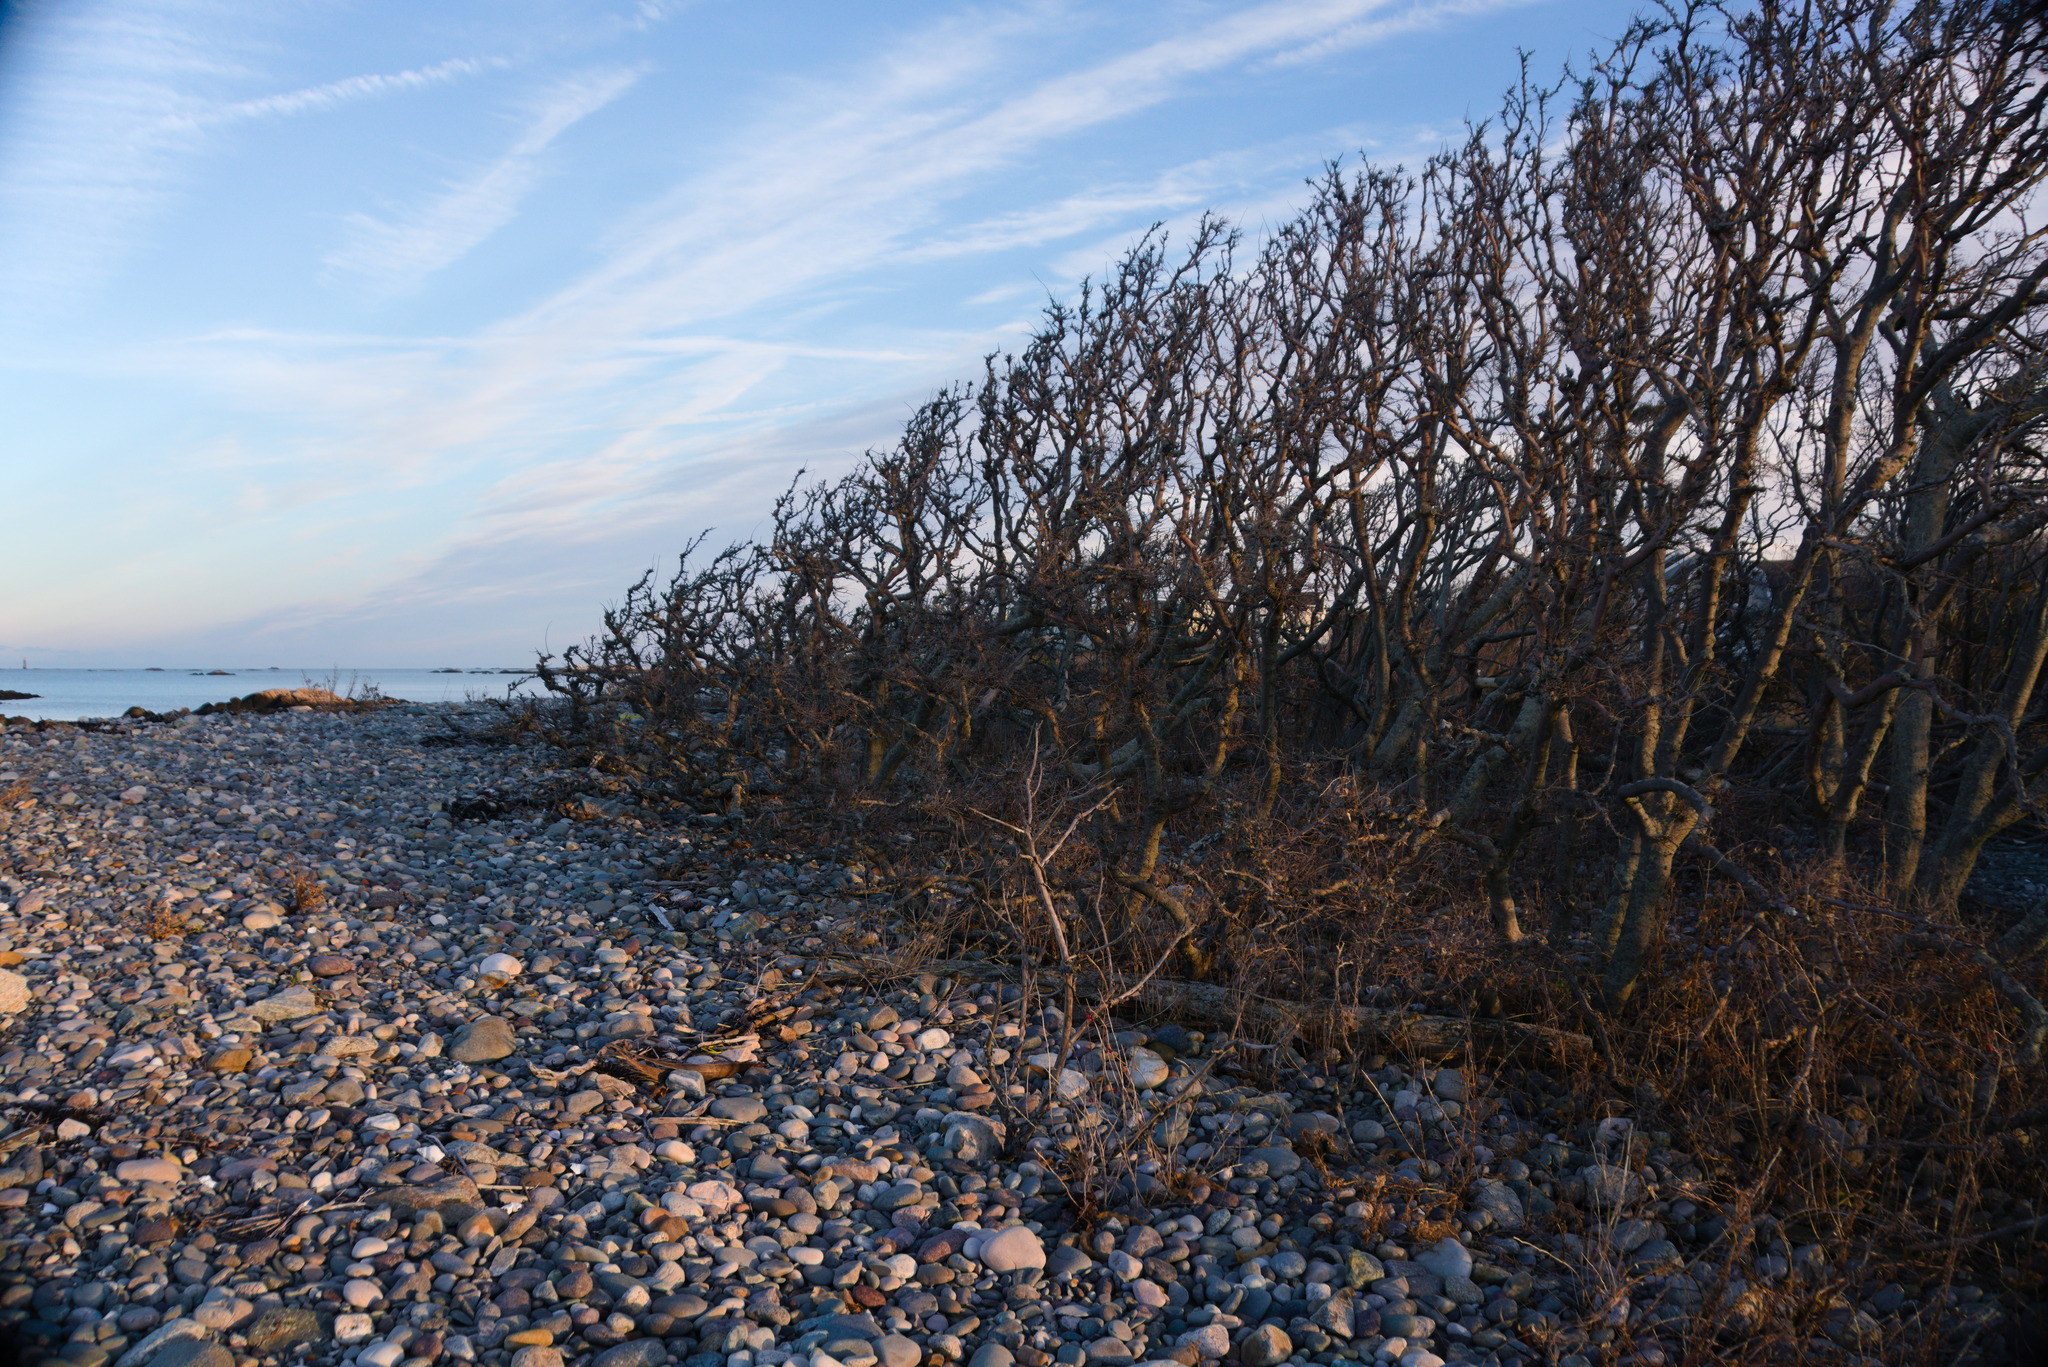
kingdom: Plantae
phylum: Tracheophyta
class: Magnoliopsida
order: Sapindales
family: Anacardiaceae
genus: Rhus
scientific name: Rhus typhina
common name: Staghorn sumac
